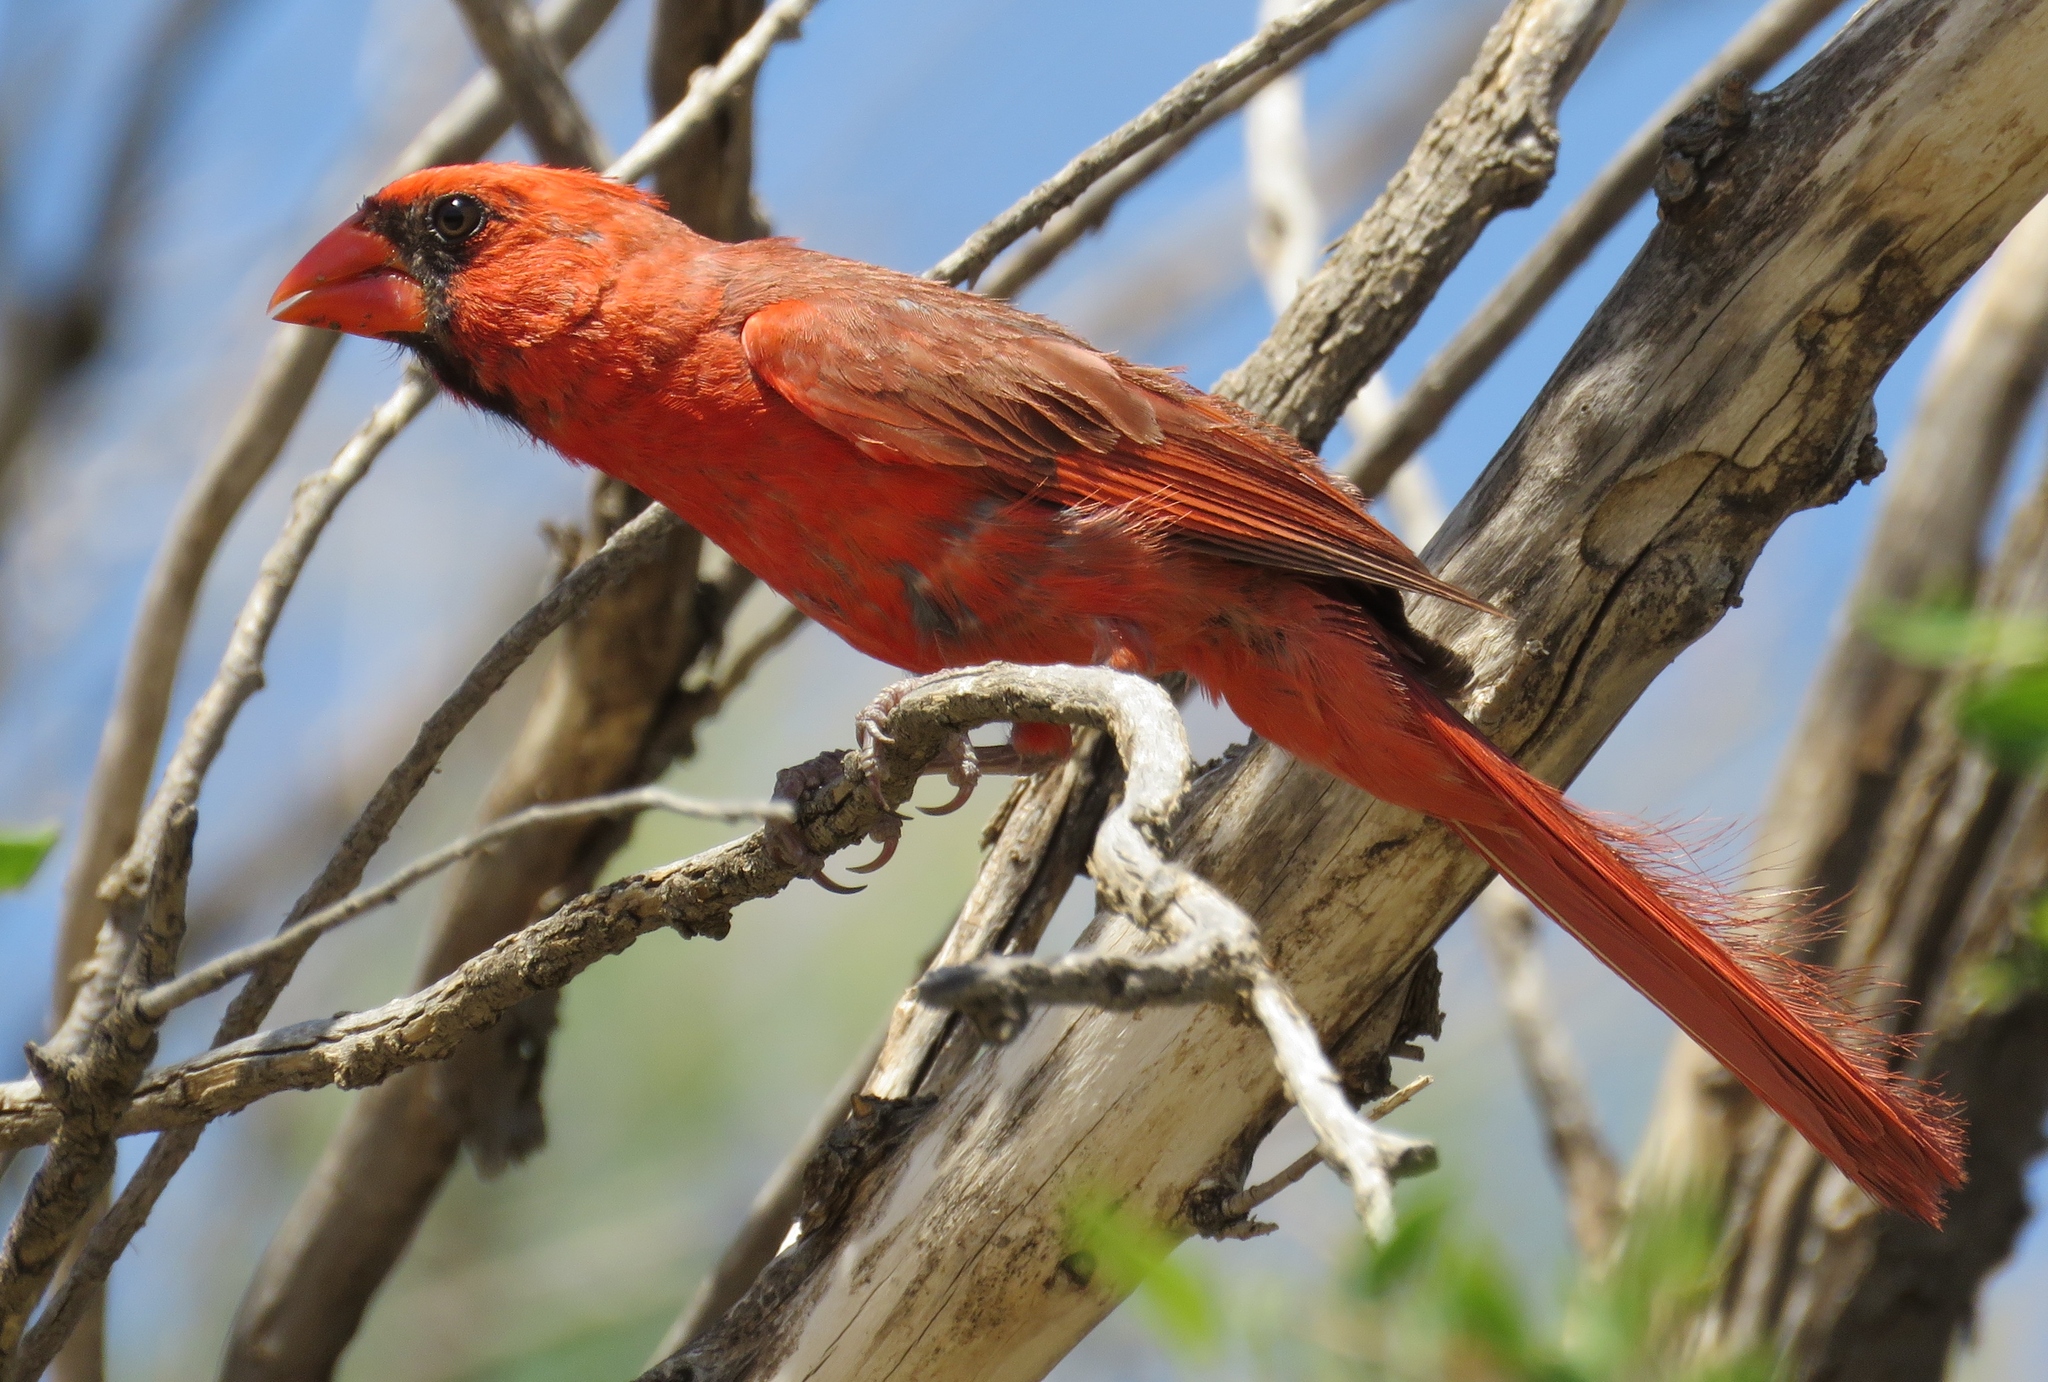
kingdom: Animalia
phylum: Chordata
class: Aves
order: Passeriformes
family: Cardinalidae
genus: Cardinalis
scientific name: Cardinalis cardinalis
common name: Northern cardinal
